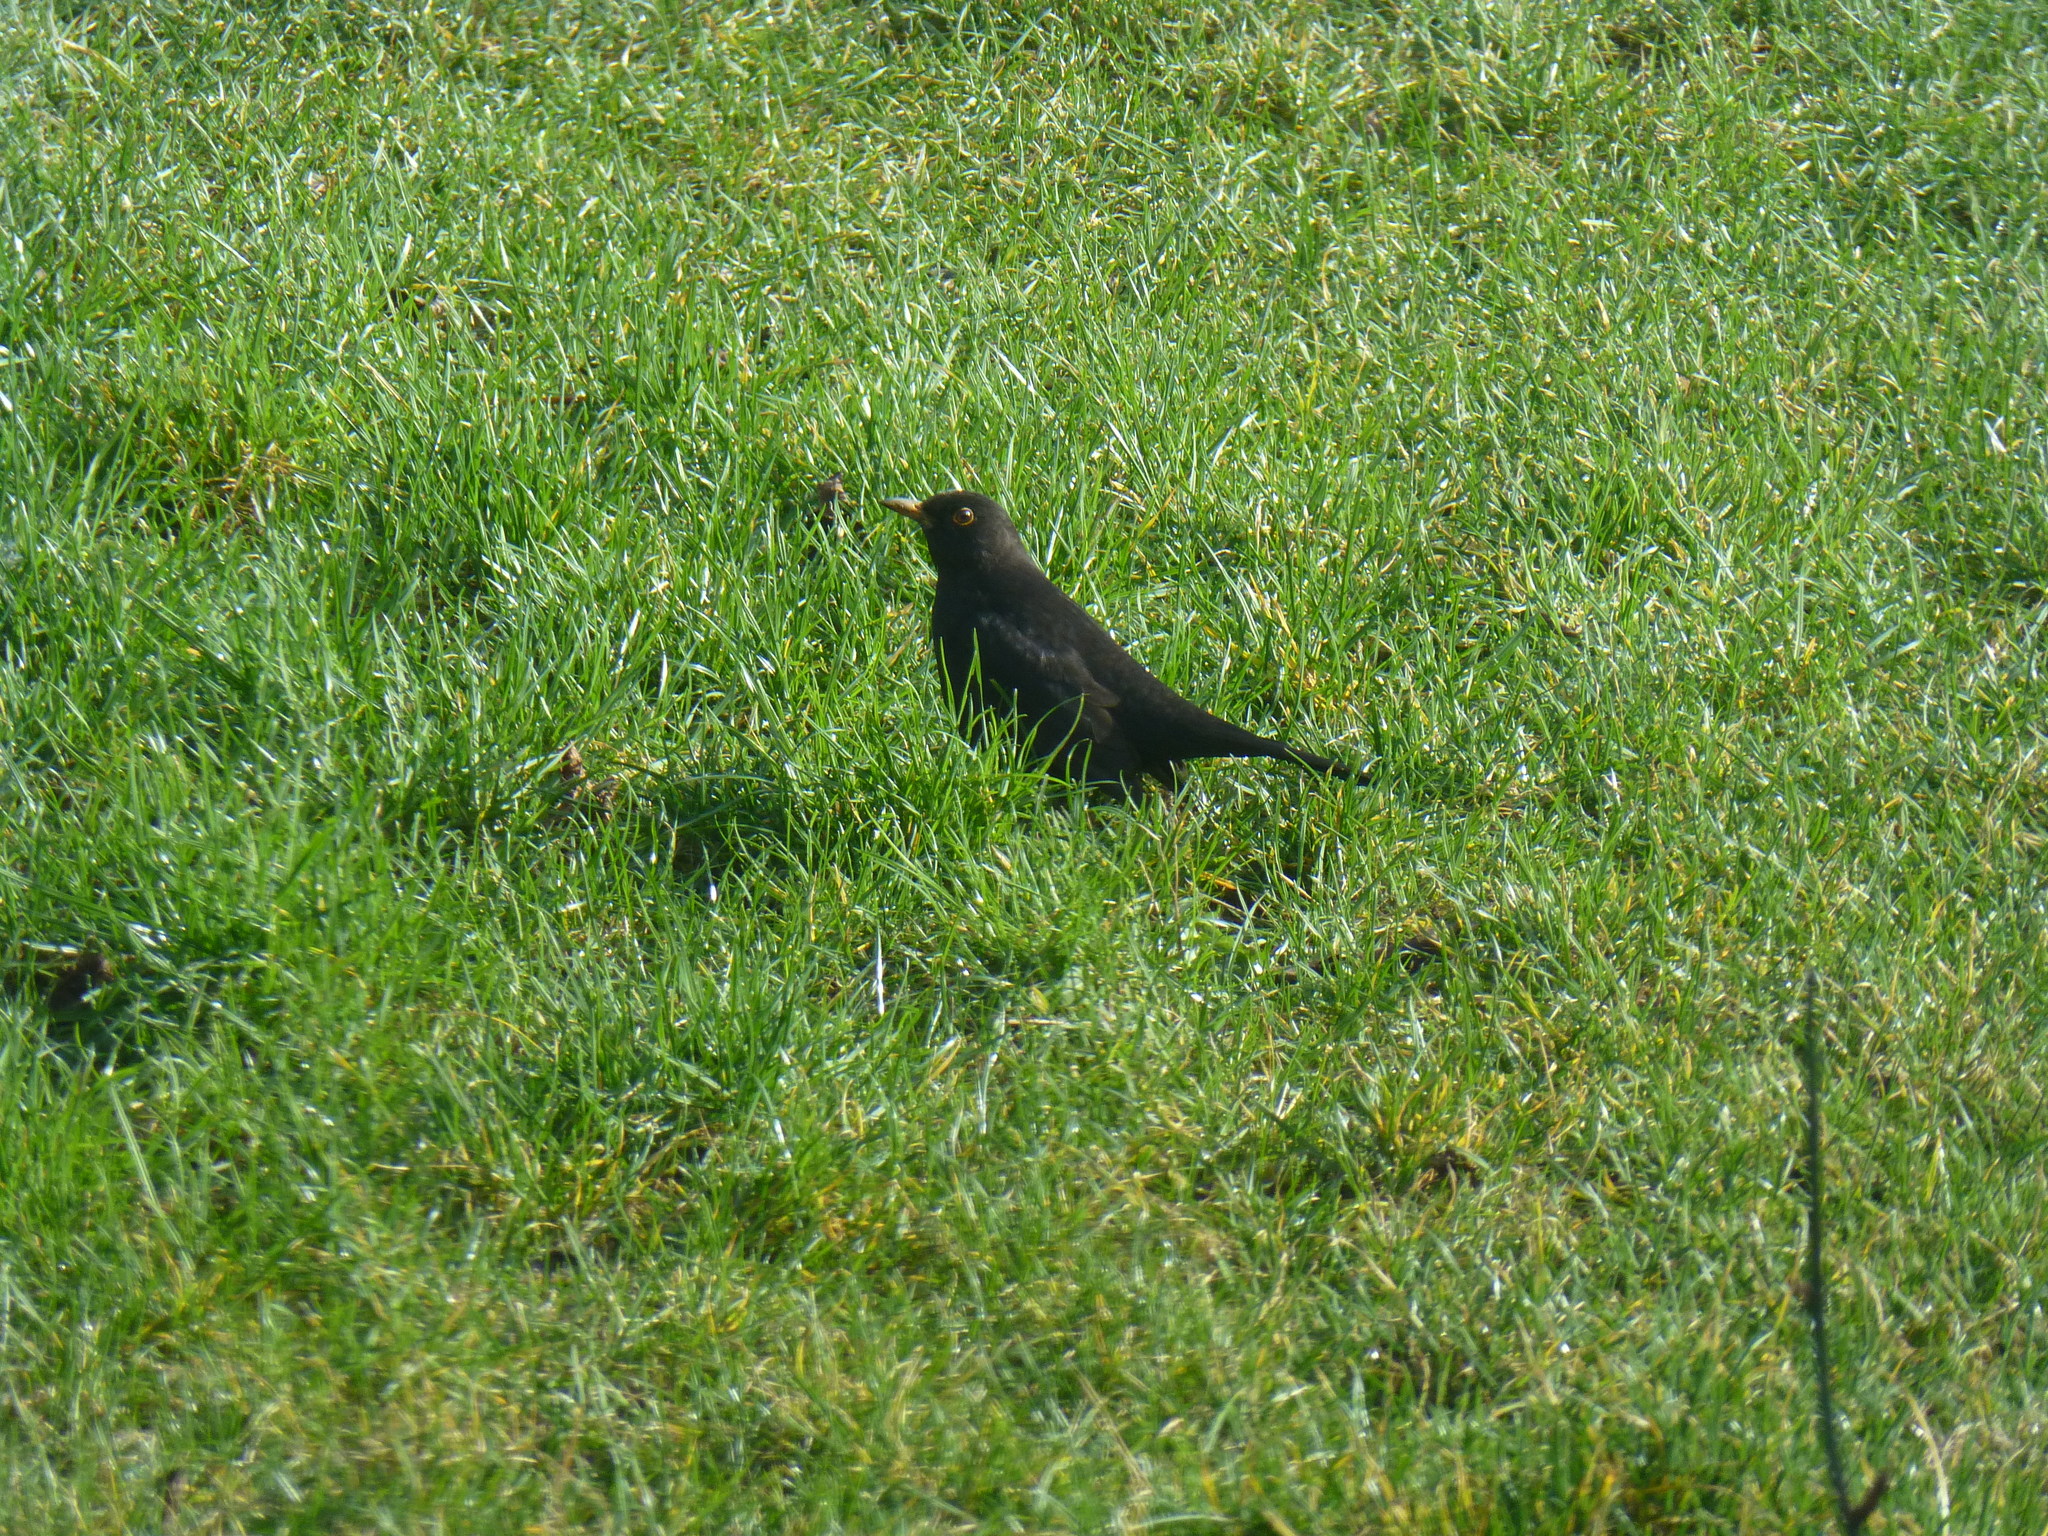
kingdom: Animalia
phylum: Chordata
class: Aves
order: Passeriformes
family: Turdidae
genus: Turdus
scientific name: Turdus merula
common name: Common blackbird
